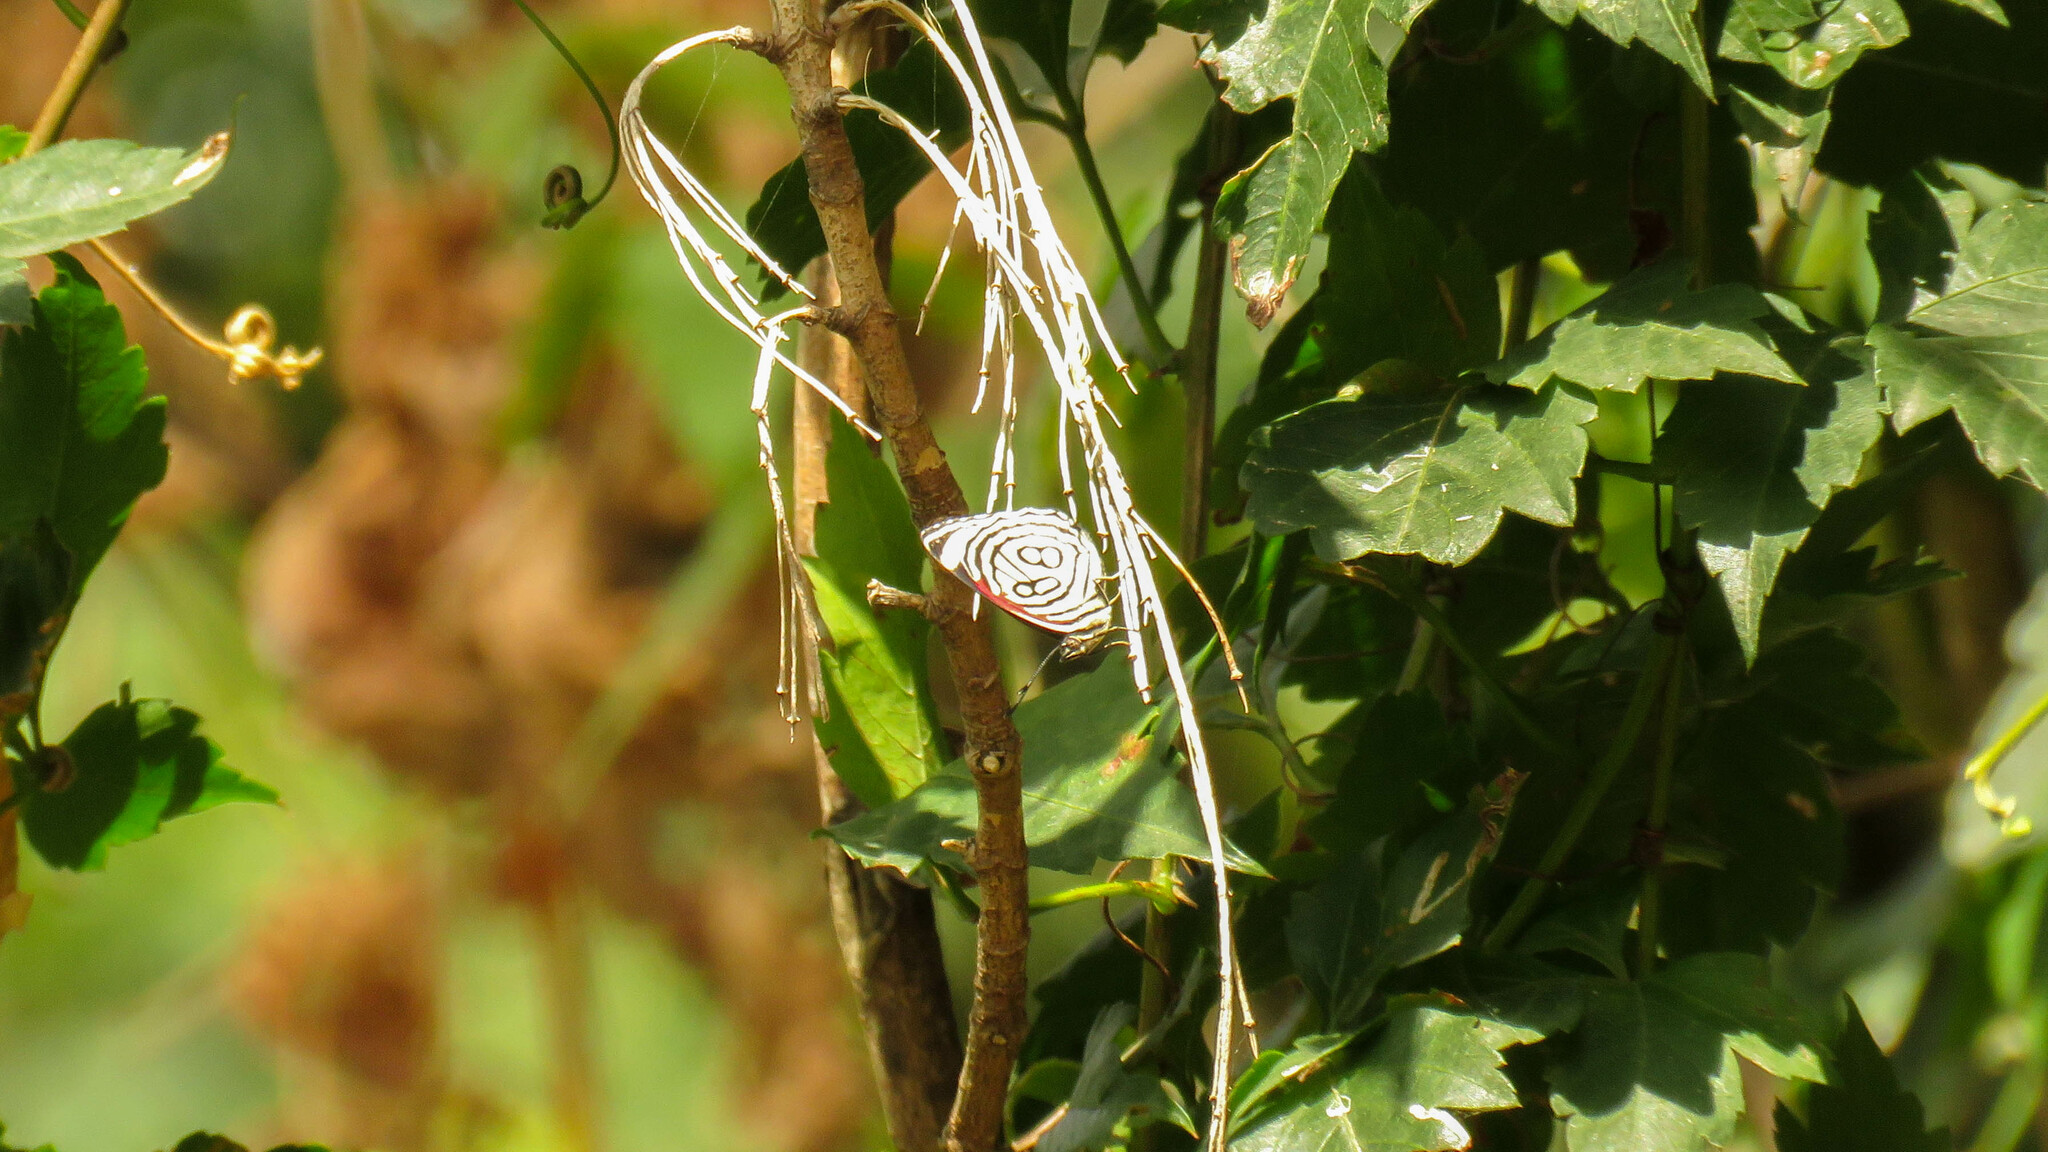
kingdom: Animalia
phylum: Arthropoda
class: Insecta
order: Lepidoptera
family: Nymphalidae
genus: Diaethria
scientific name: Diaethria candrena
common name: Number eighty
